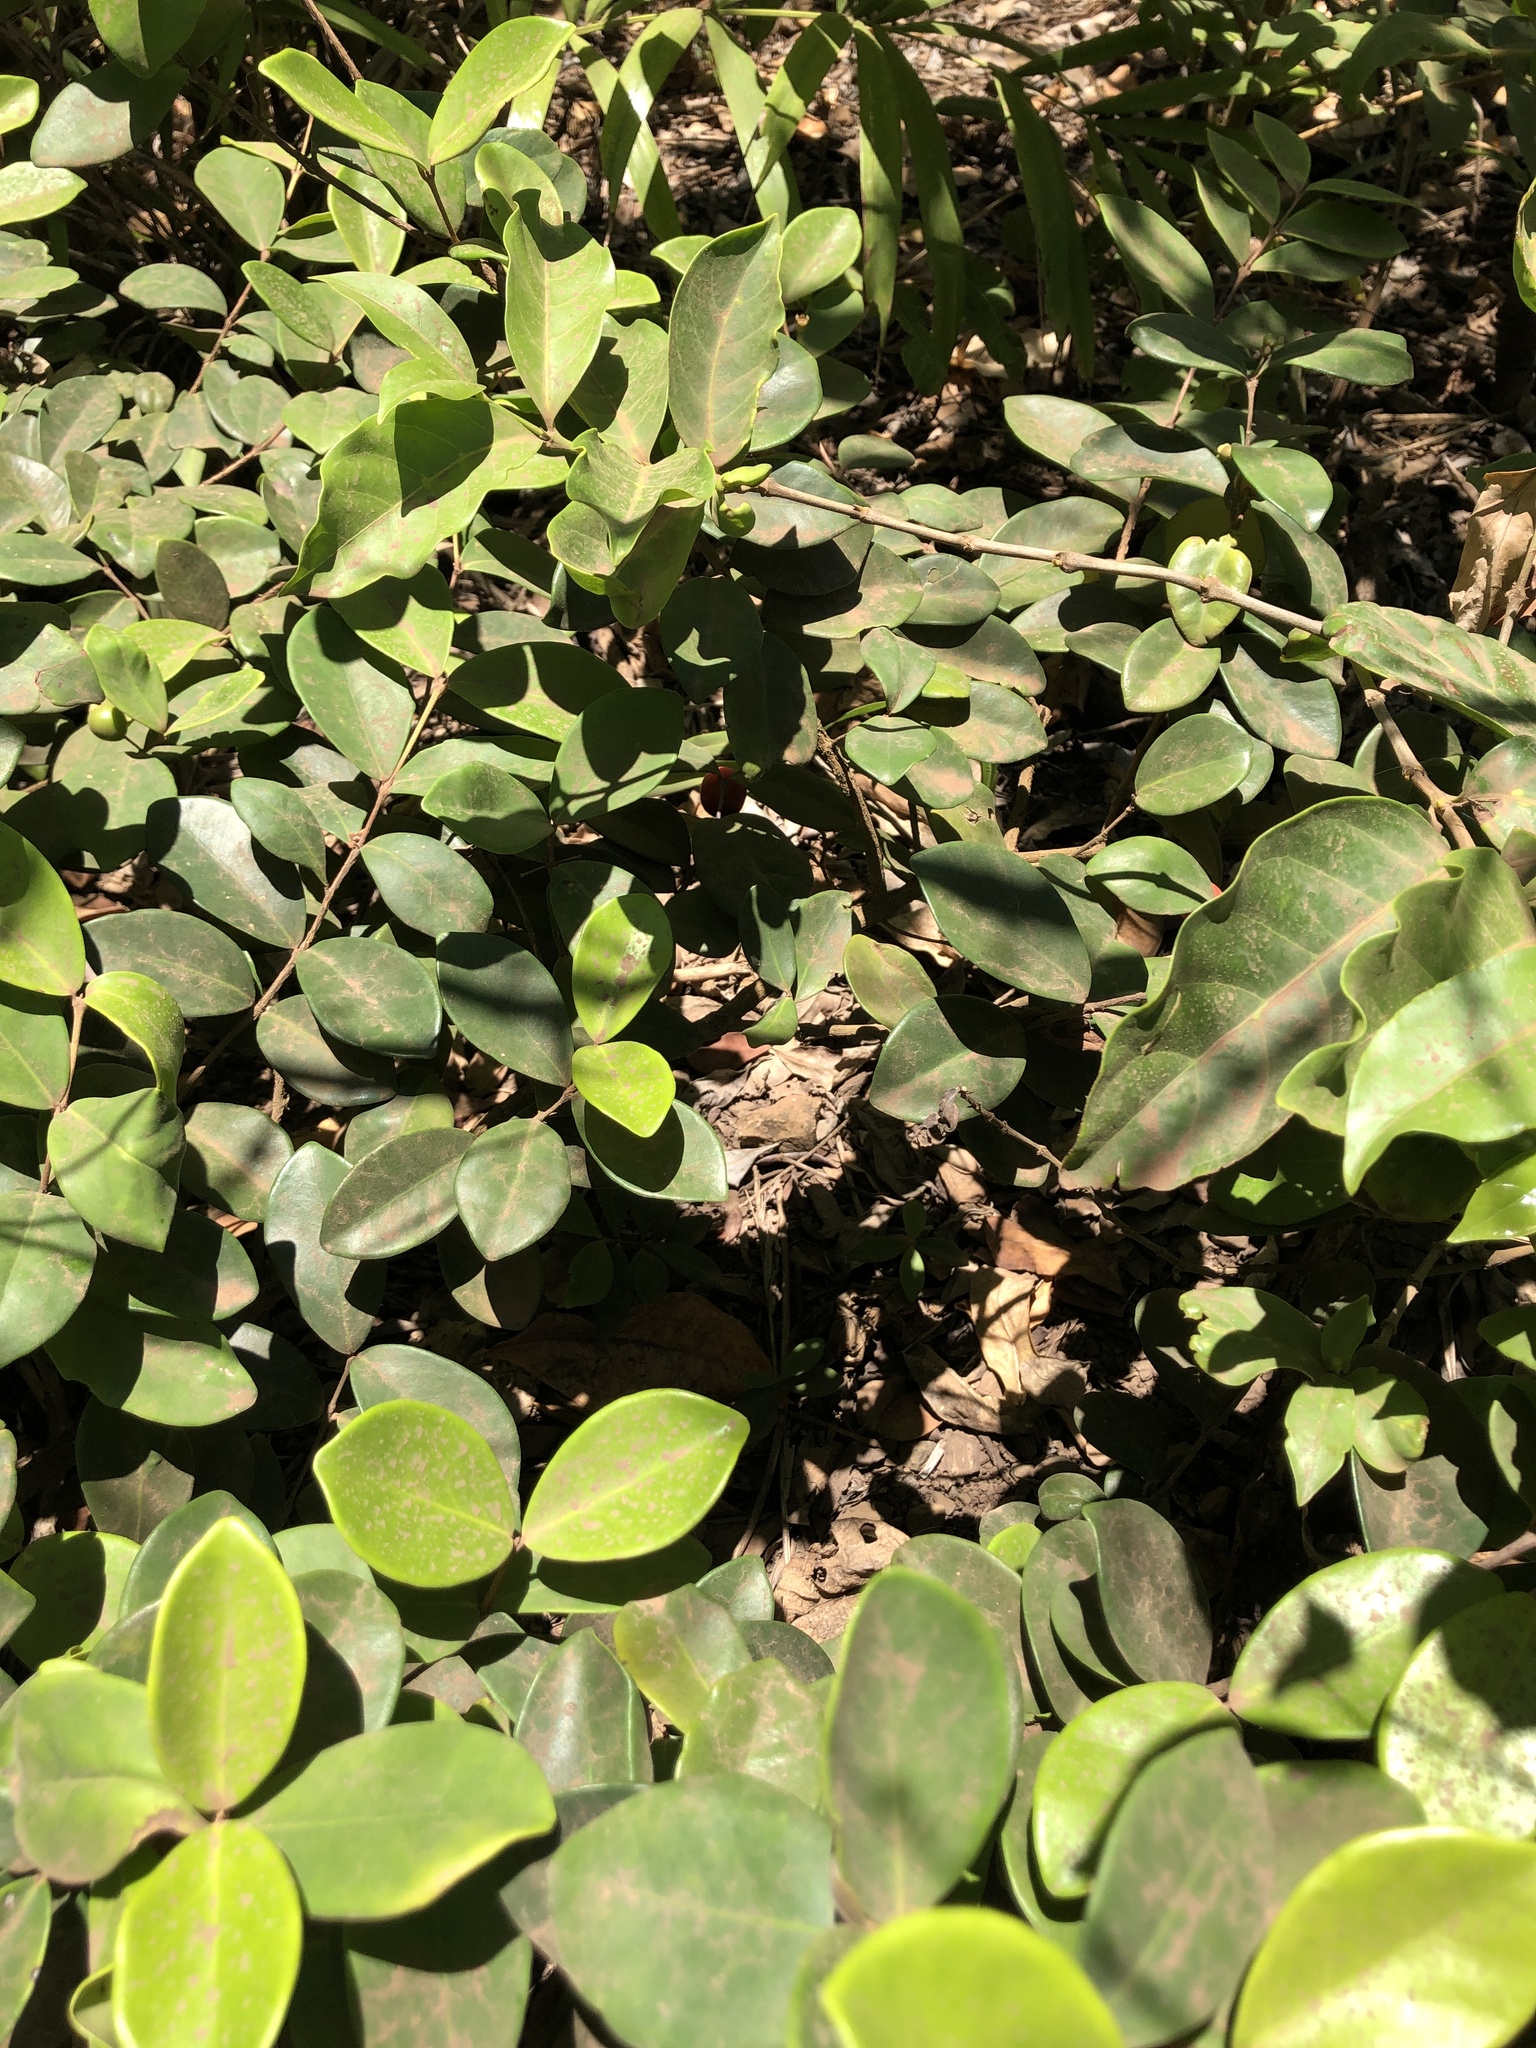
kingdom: Plantae
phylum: Tracheophyta
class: Magnoliopsida
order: Myrtales
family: Myrtaceae
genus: Eugenia
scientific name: Eugenia reinwardtiana
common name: Cedar bay-cherry
